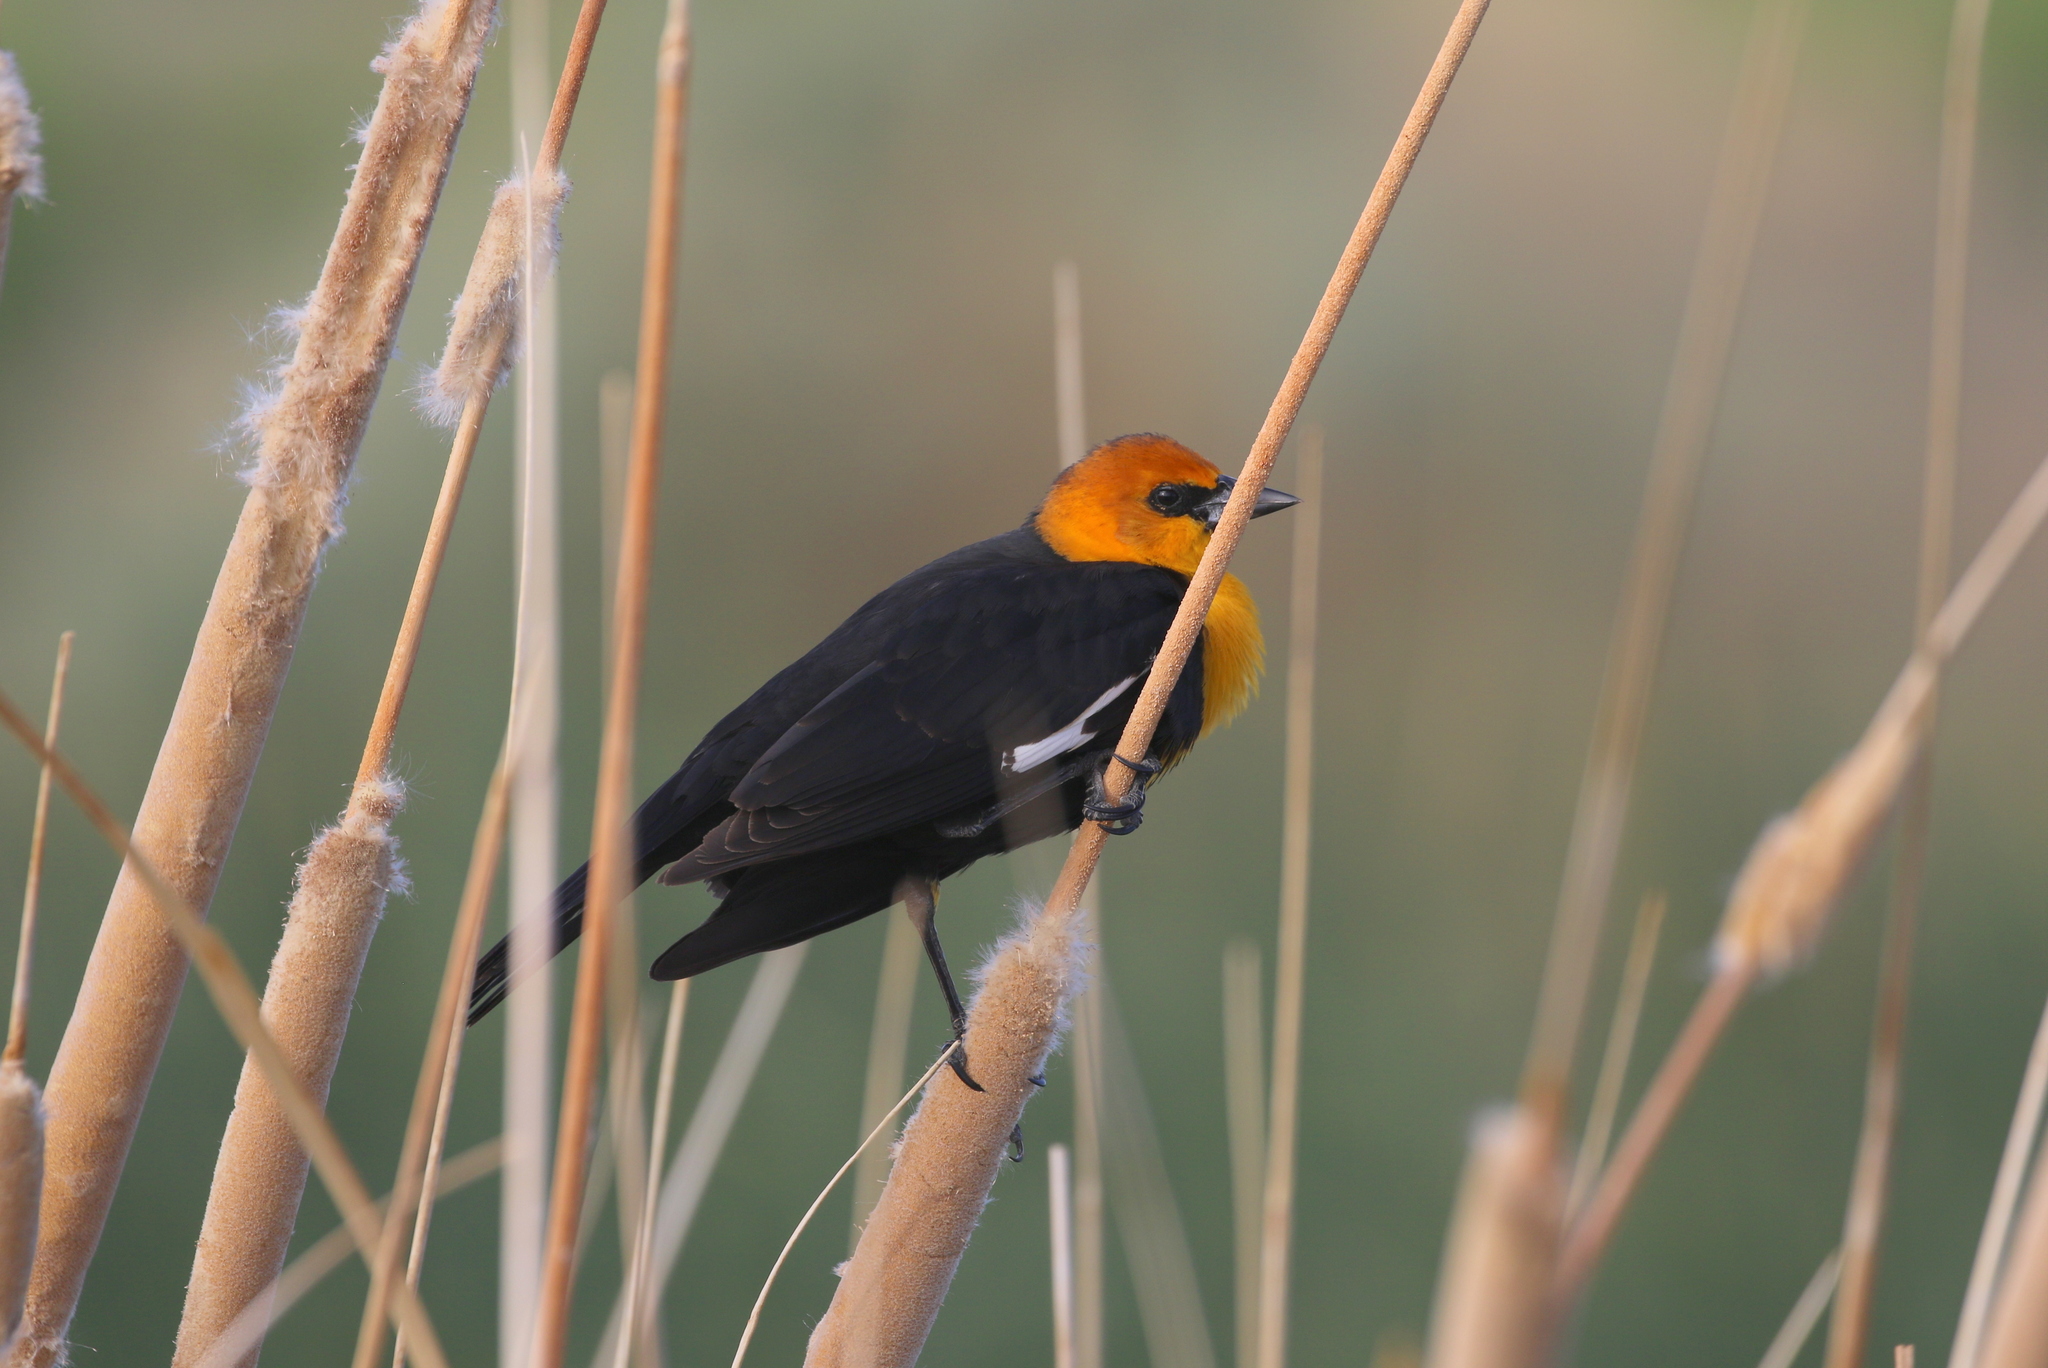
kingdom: Animalia
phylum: Chordata
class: Aves
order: Passeriformes
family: Icteridae
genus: Xanthocephalus
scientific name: Xanthocephalus xanthocephalus
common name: Yellow-headed blackbird
